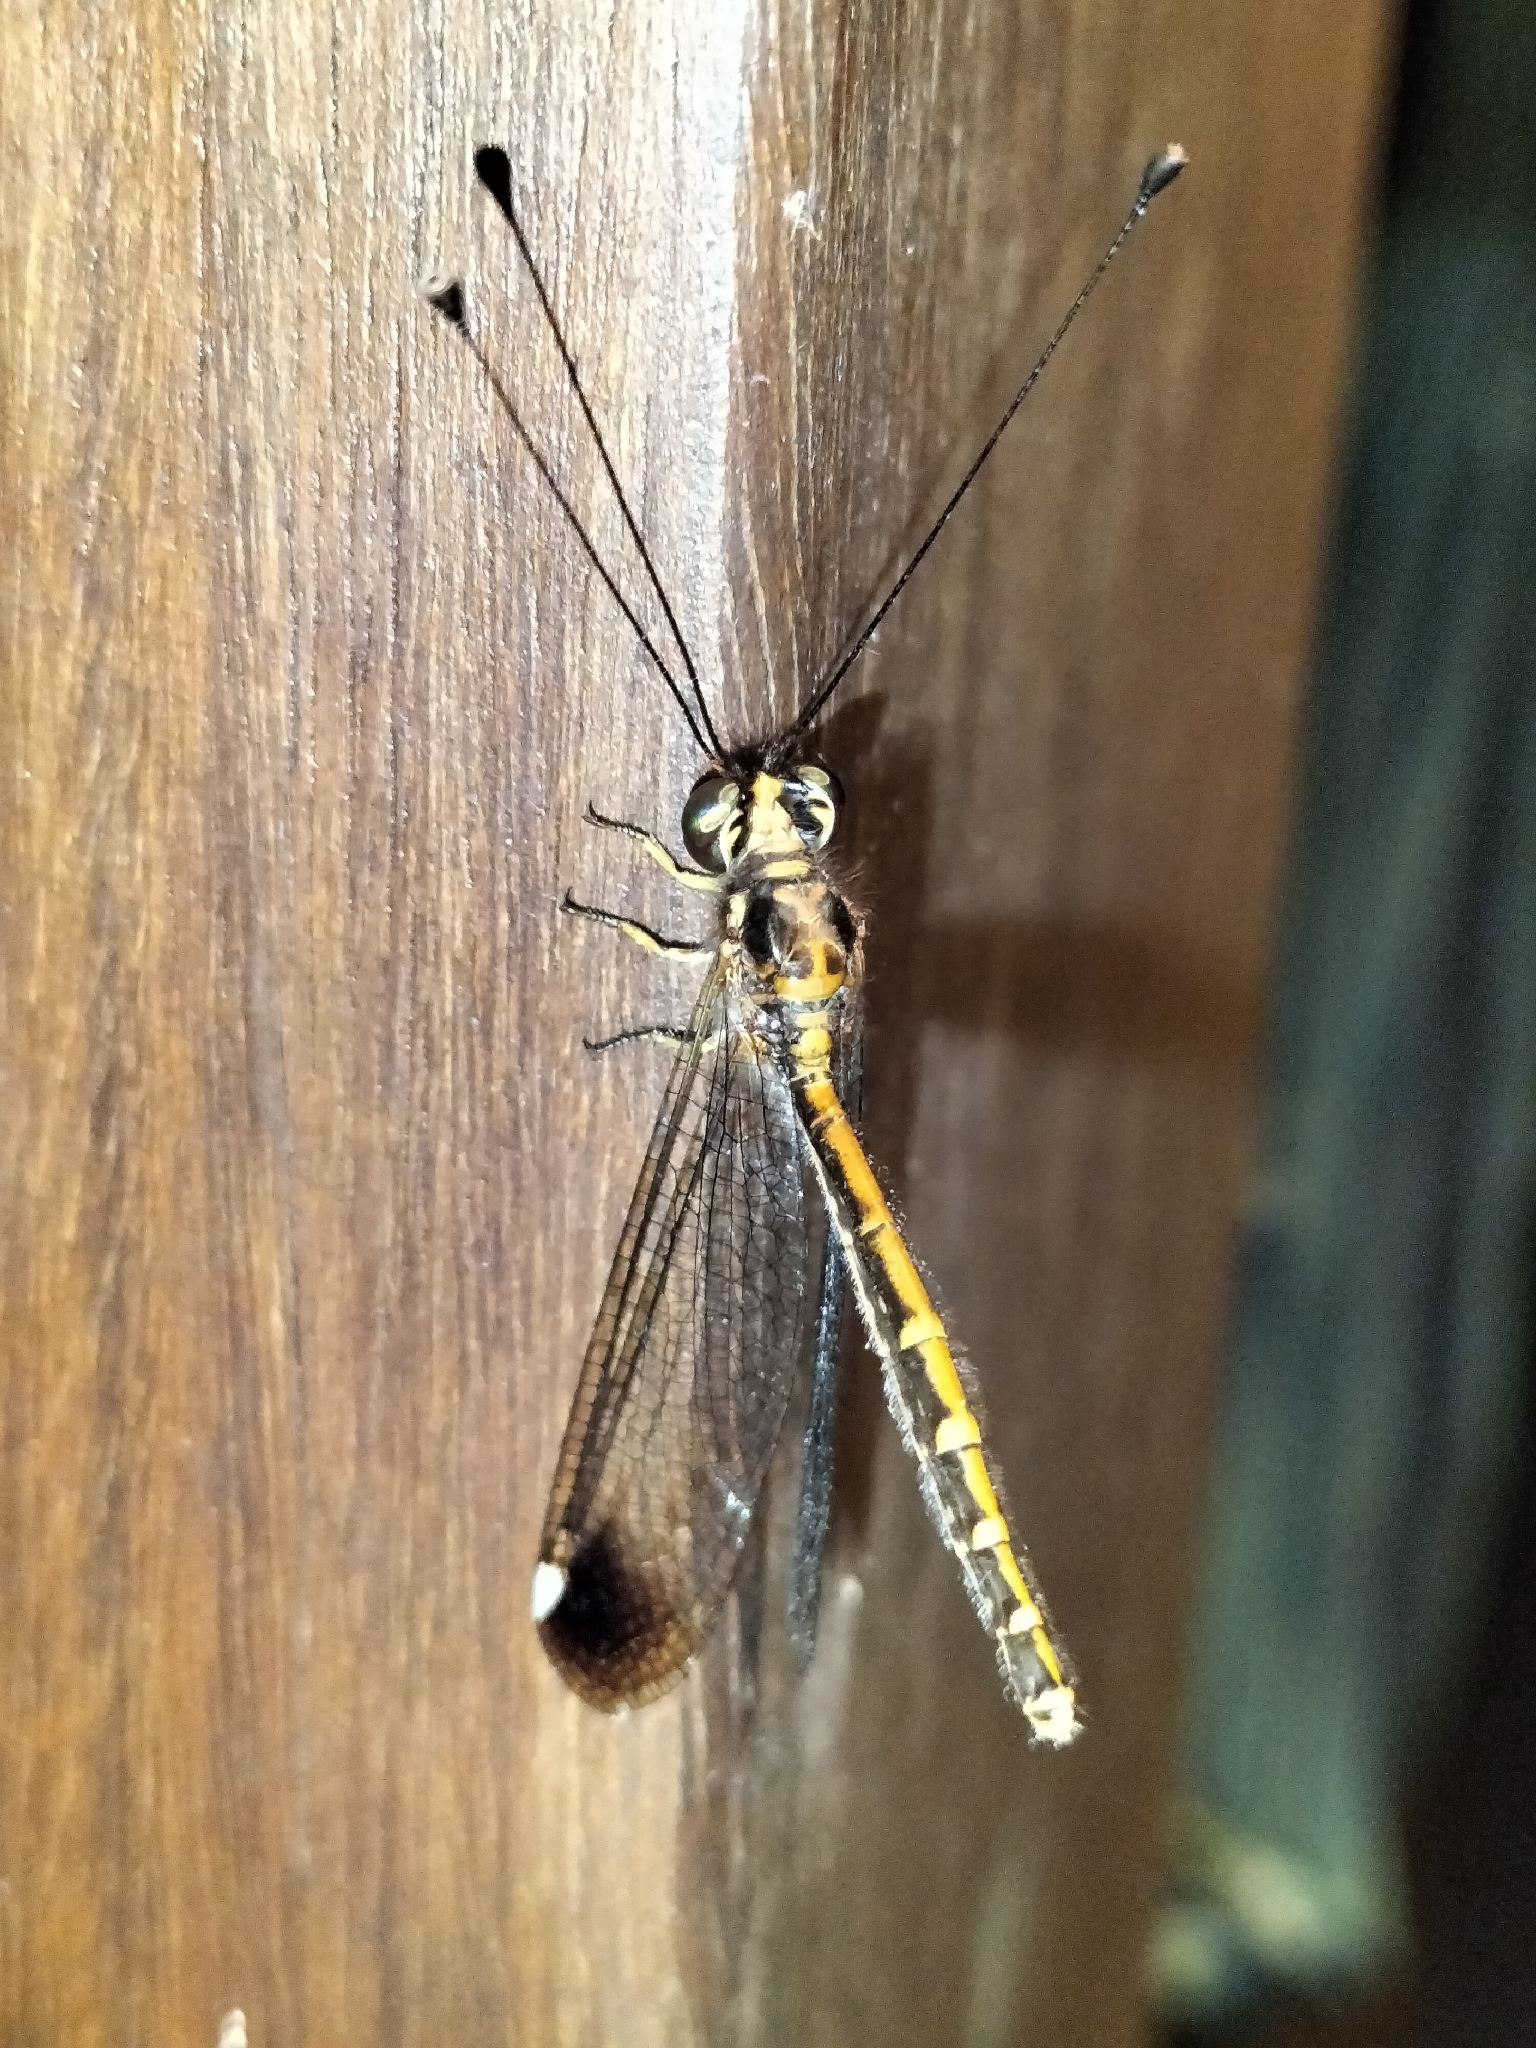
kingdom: Animalia
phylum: Arthropoda
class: Insecta
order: Neuroptera
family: Ascalaphidae
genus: Suhpalacsa
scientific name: Suhpalacsa dietrichiae
